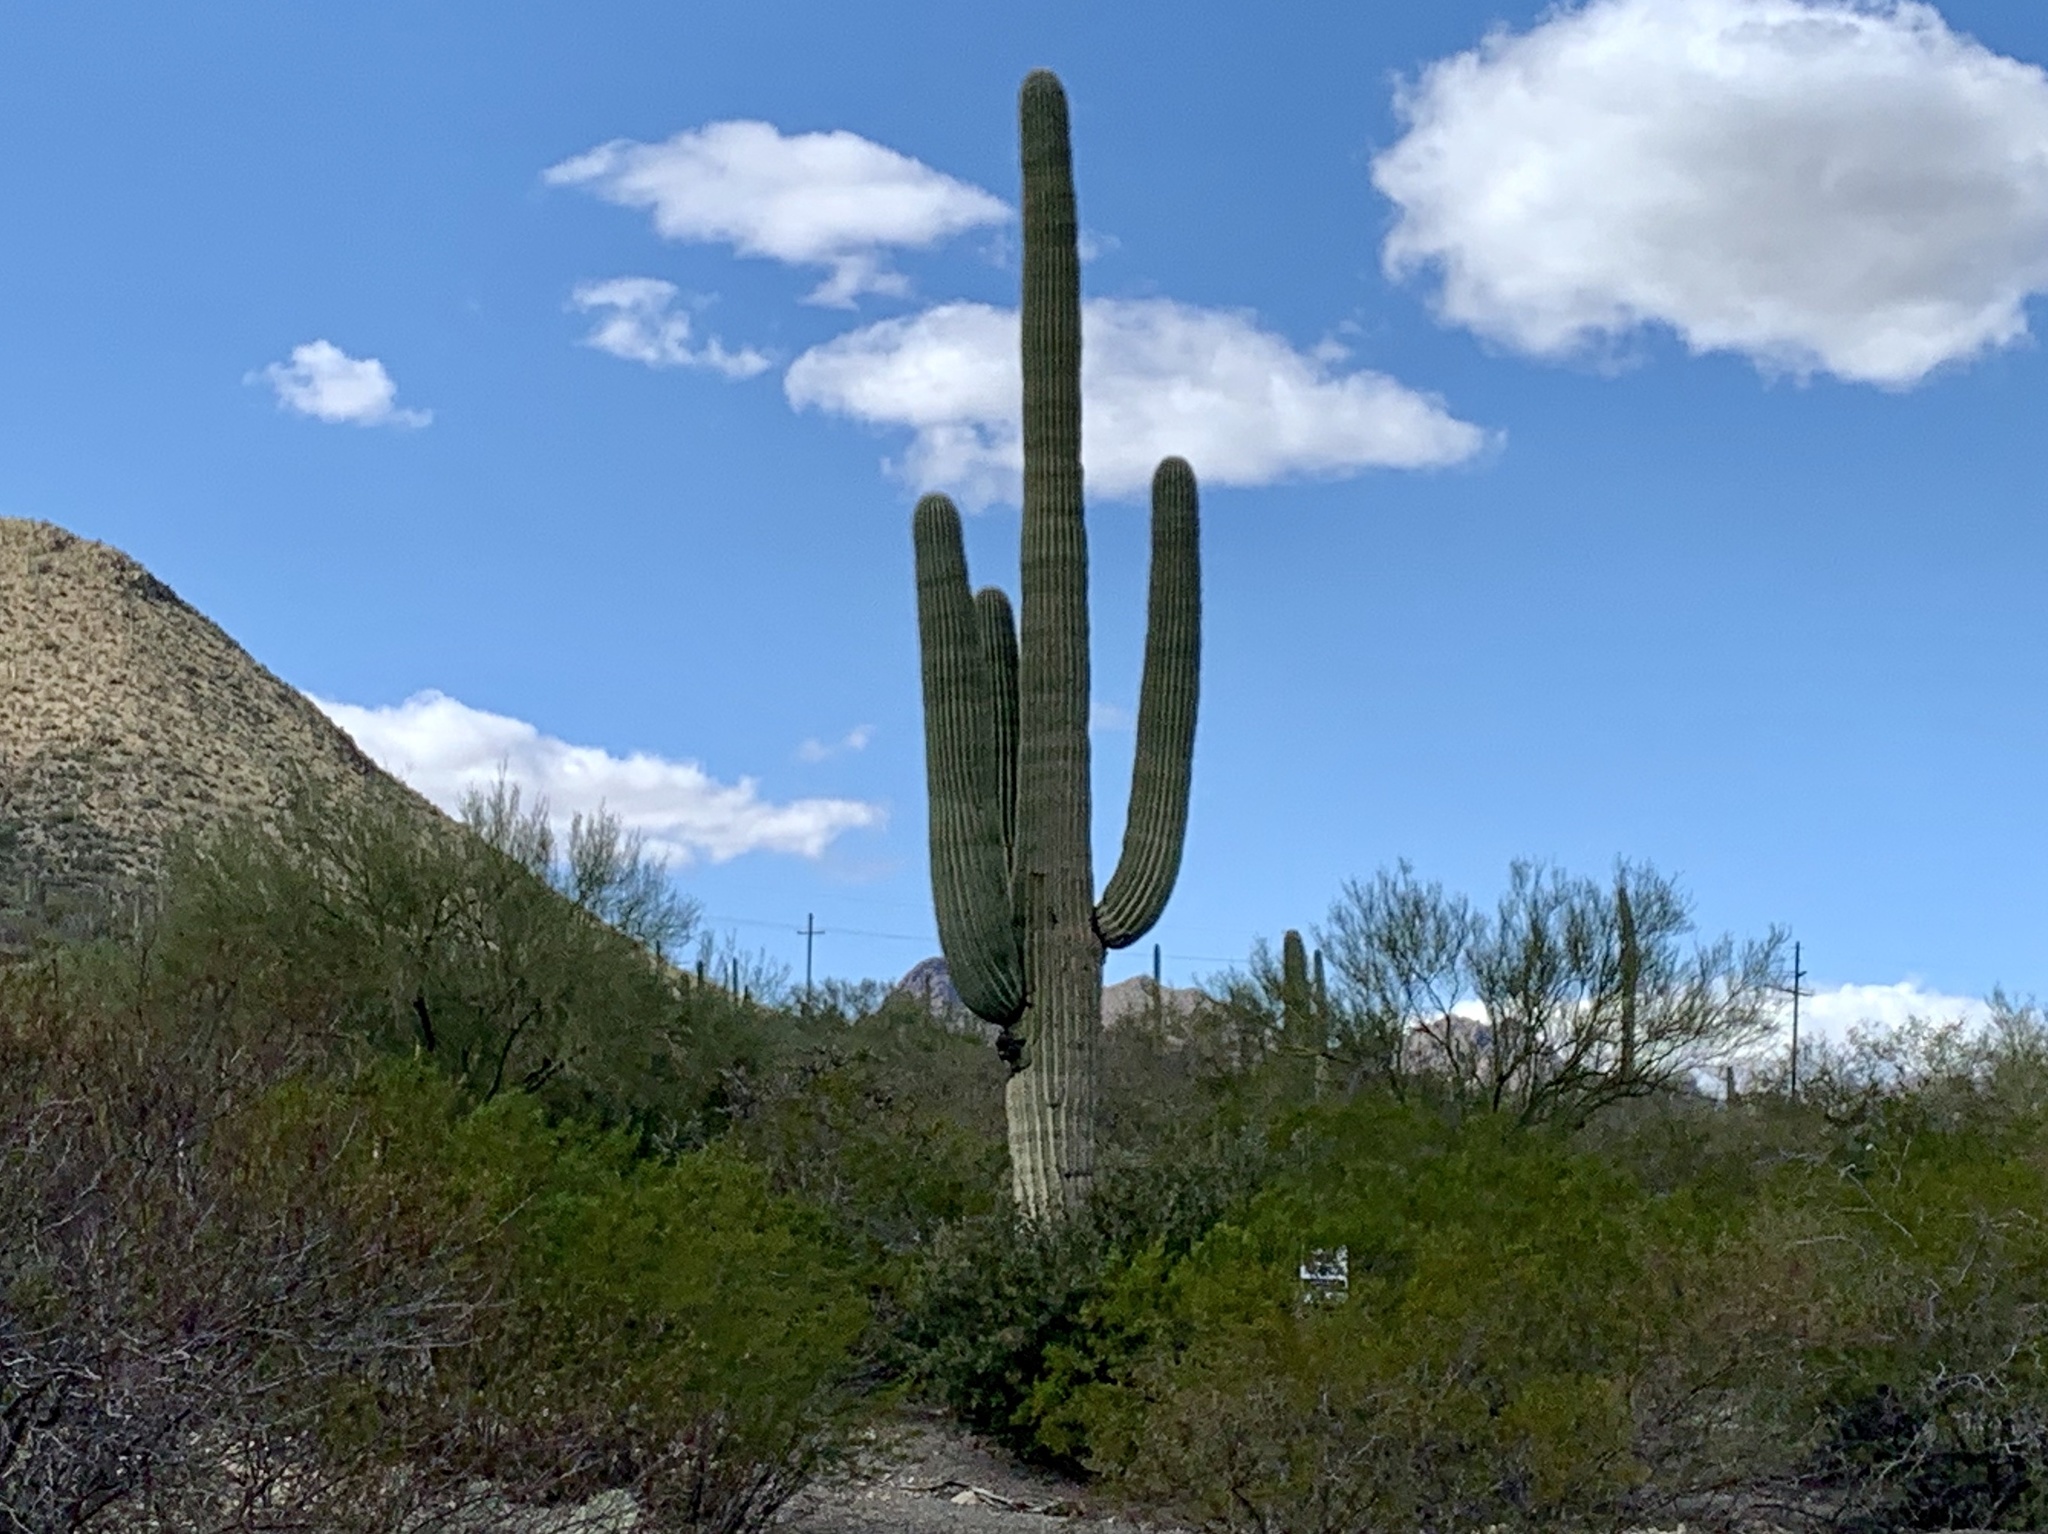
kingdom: Plantae
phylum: Tracheophyta
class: Magnoliopsida
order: Caryophyllales
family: Cactaceae
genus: Carnegiea
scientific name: Carnegiea gigantea
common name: Saguaro
